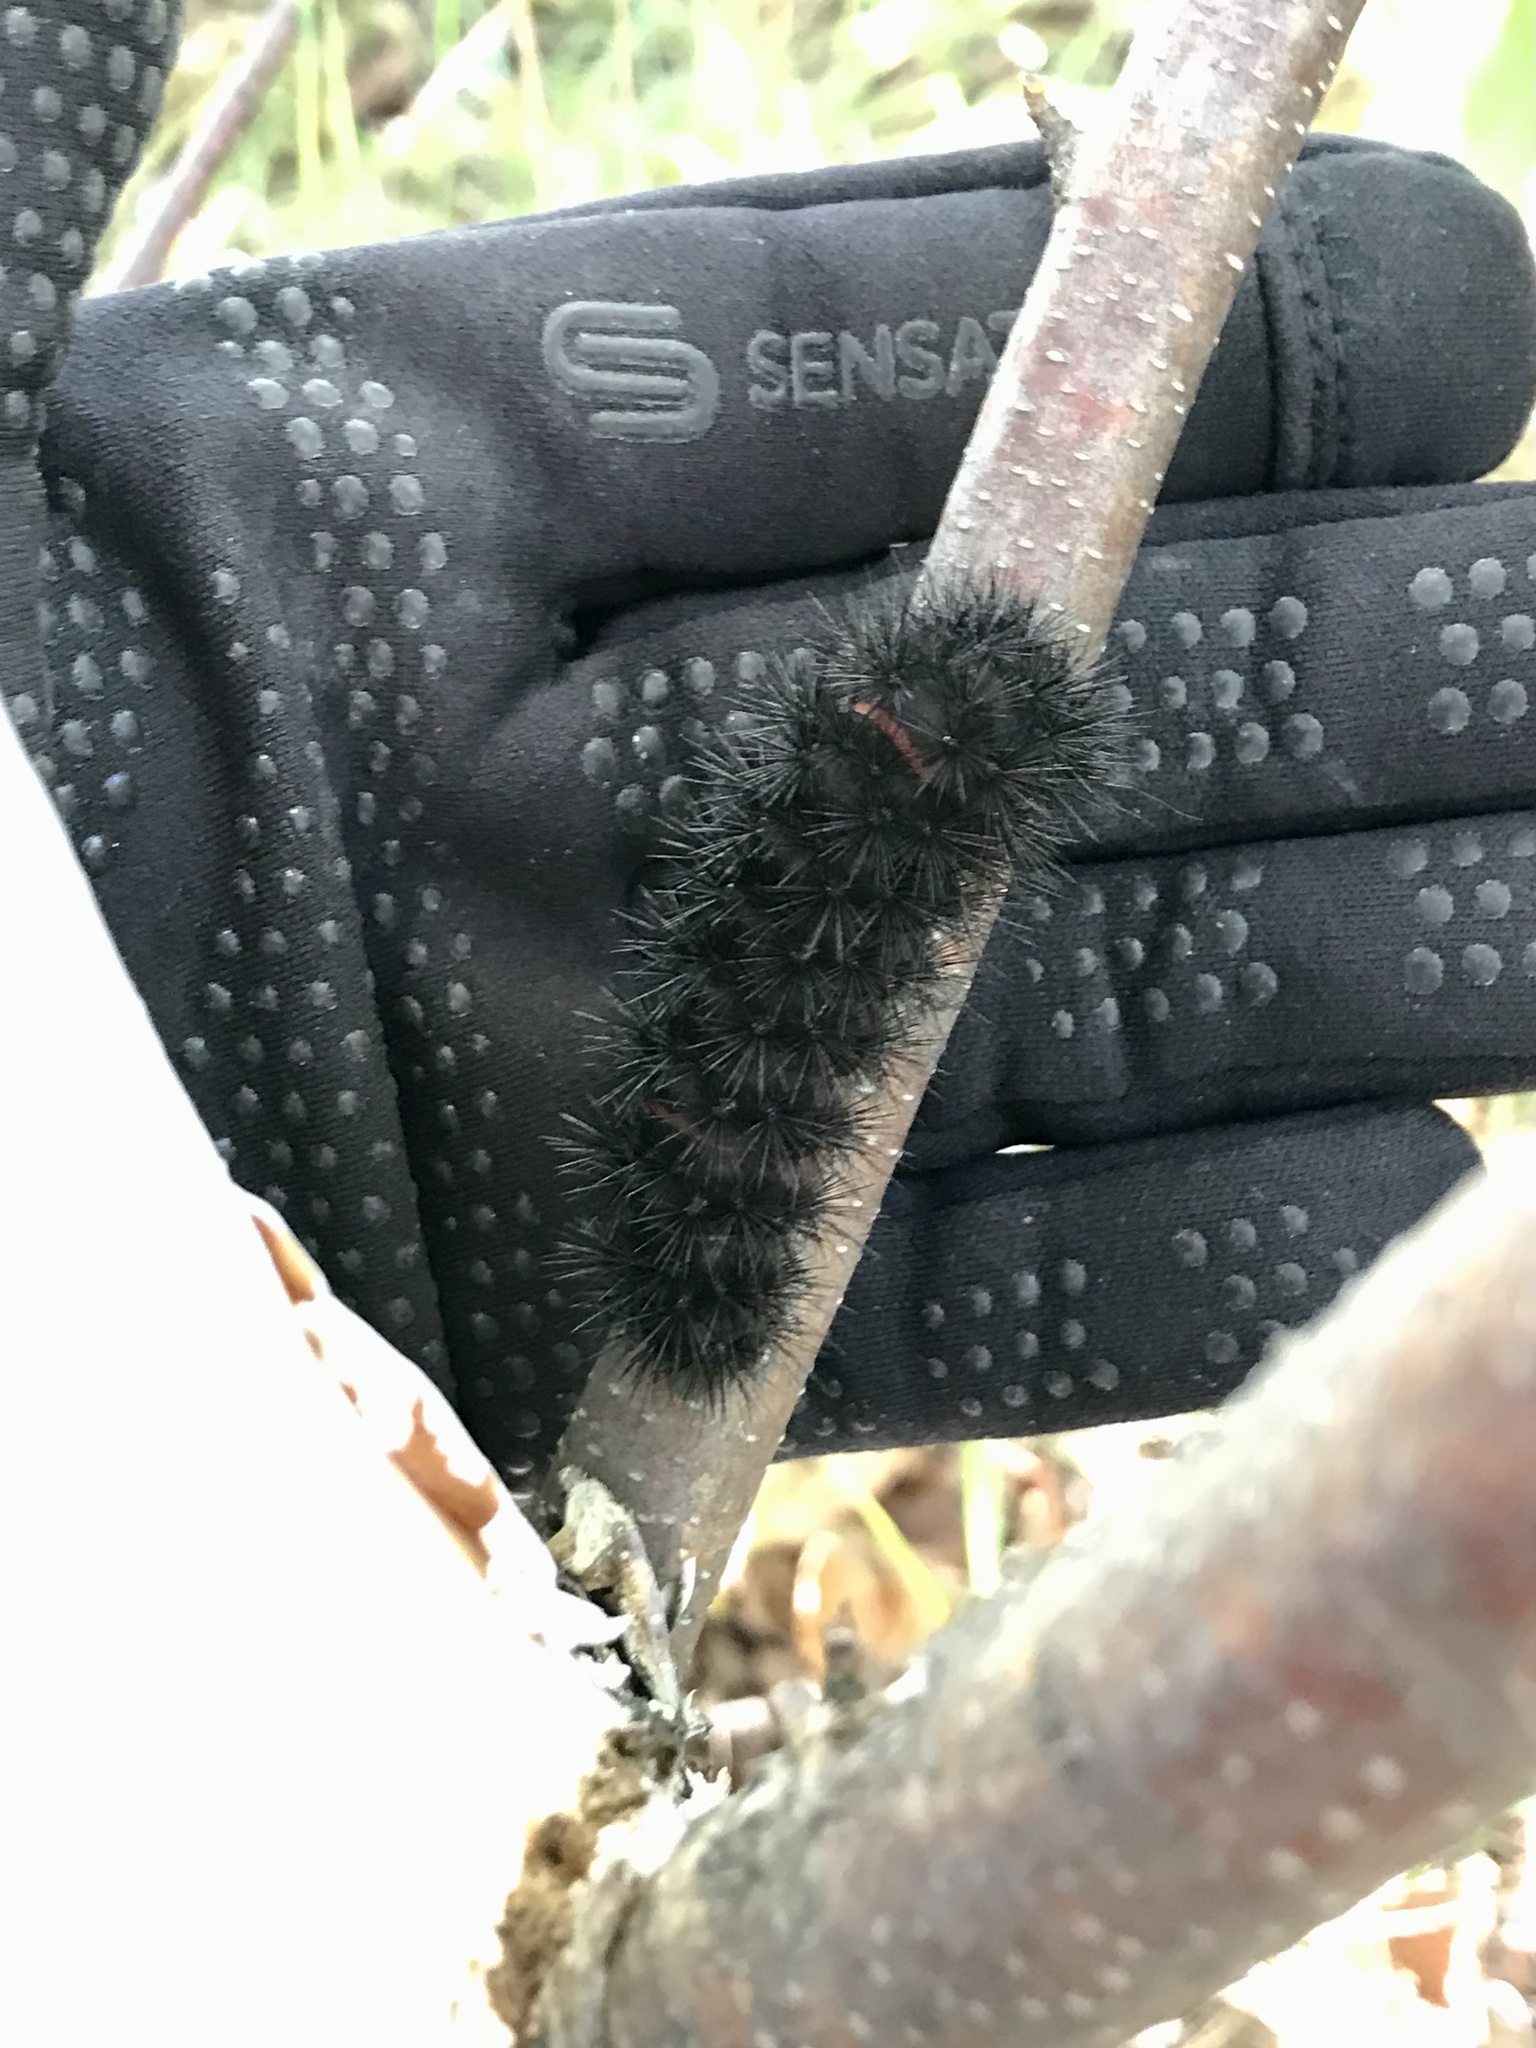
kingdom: Animalia
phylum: Arthropoda
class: Insecta
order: Lepidoptera
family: Erebidae
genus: Hypercompe
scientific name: Hypercompe scribonia
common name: Giant leopard moth
